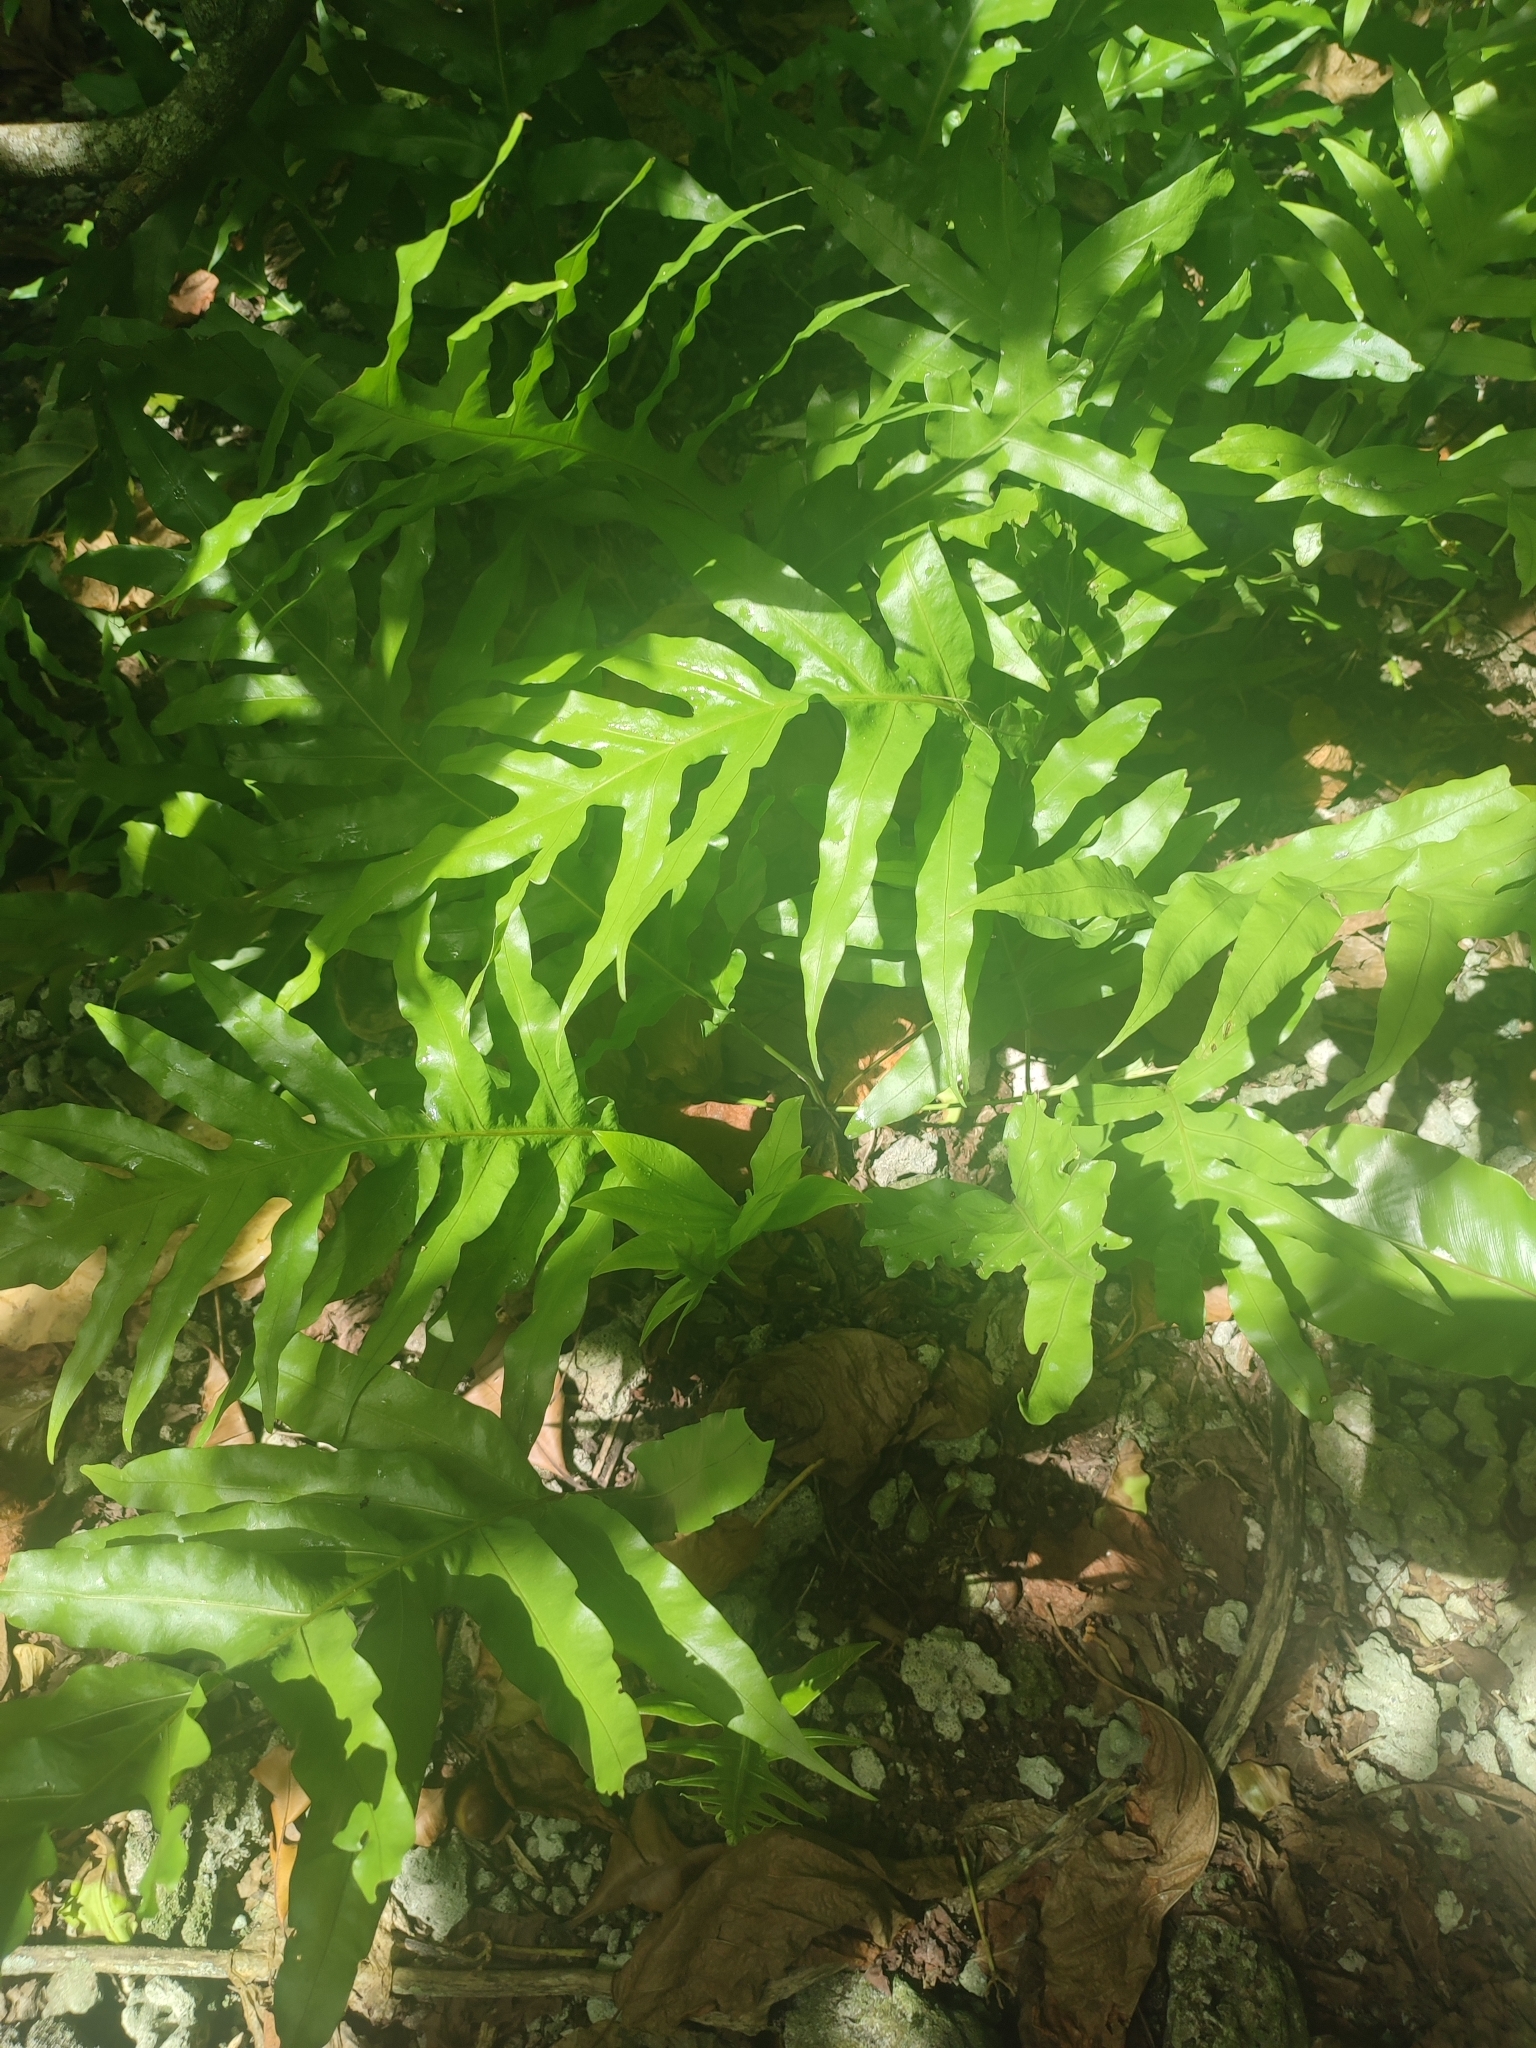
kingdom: Plantae
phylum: Tracheophyta
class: Polypodiopsida
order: Polypodiales
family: Polypodiaceae
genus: Microsorum
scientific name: Microsorum scolopendria
